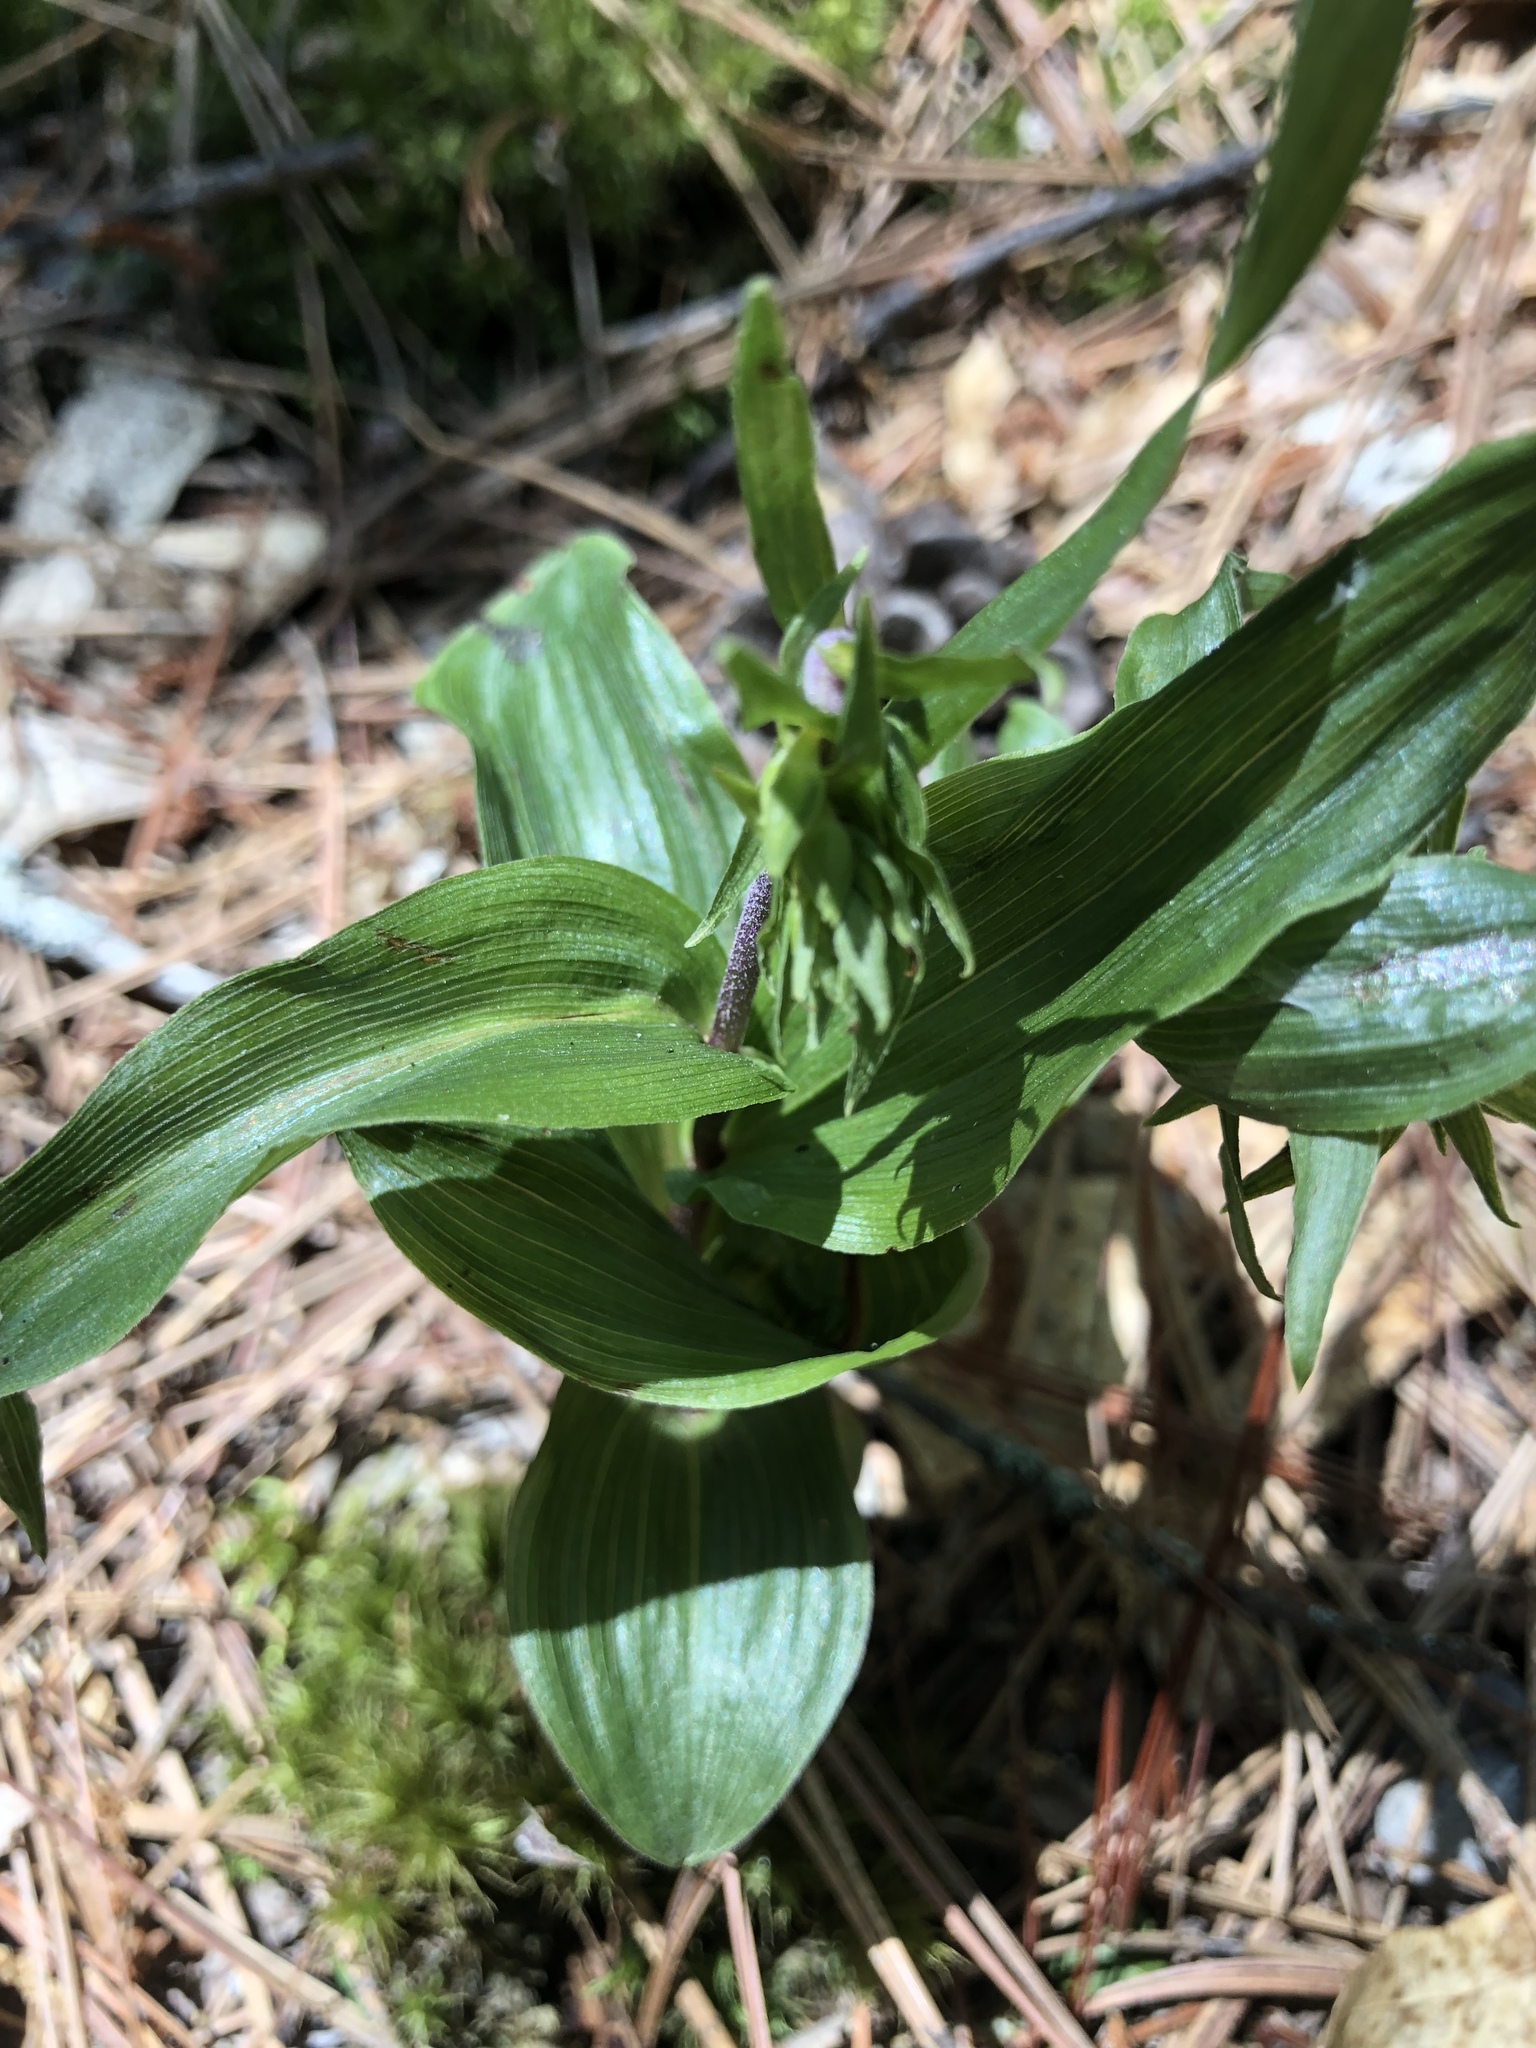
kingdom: Plantae
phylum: Tracheophyta
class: Liliopsida
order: Asparagales
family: Orchidaceae
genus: Epipactis
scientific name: Epipactis helleborine
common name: Broad-leaved helleborine
